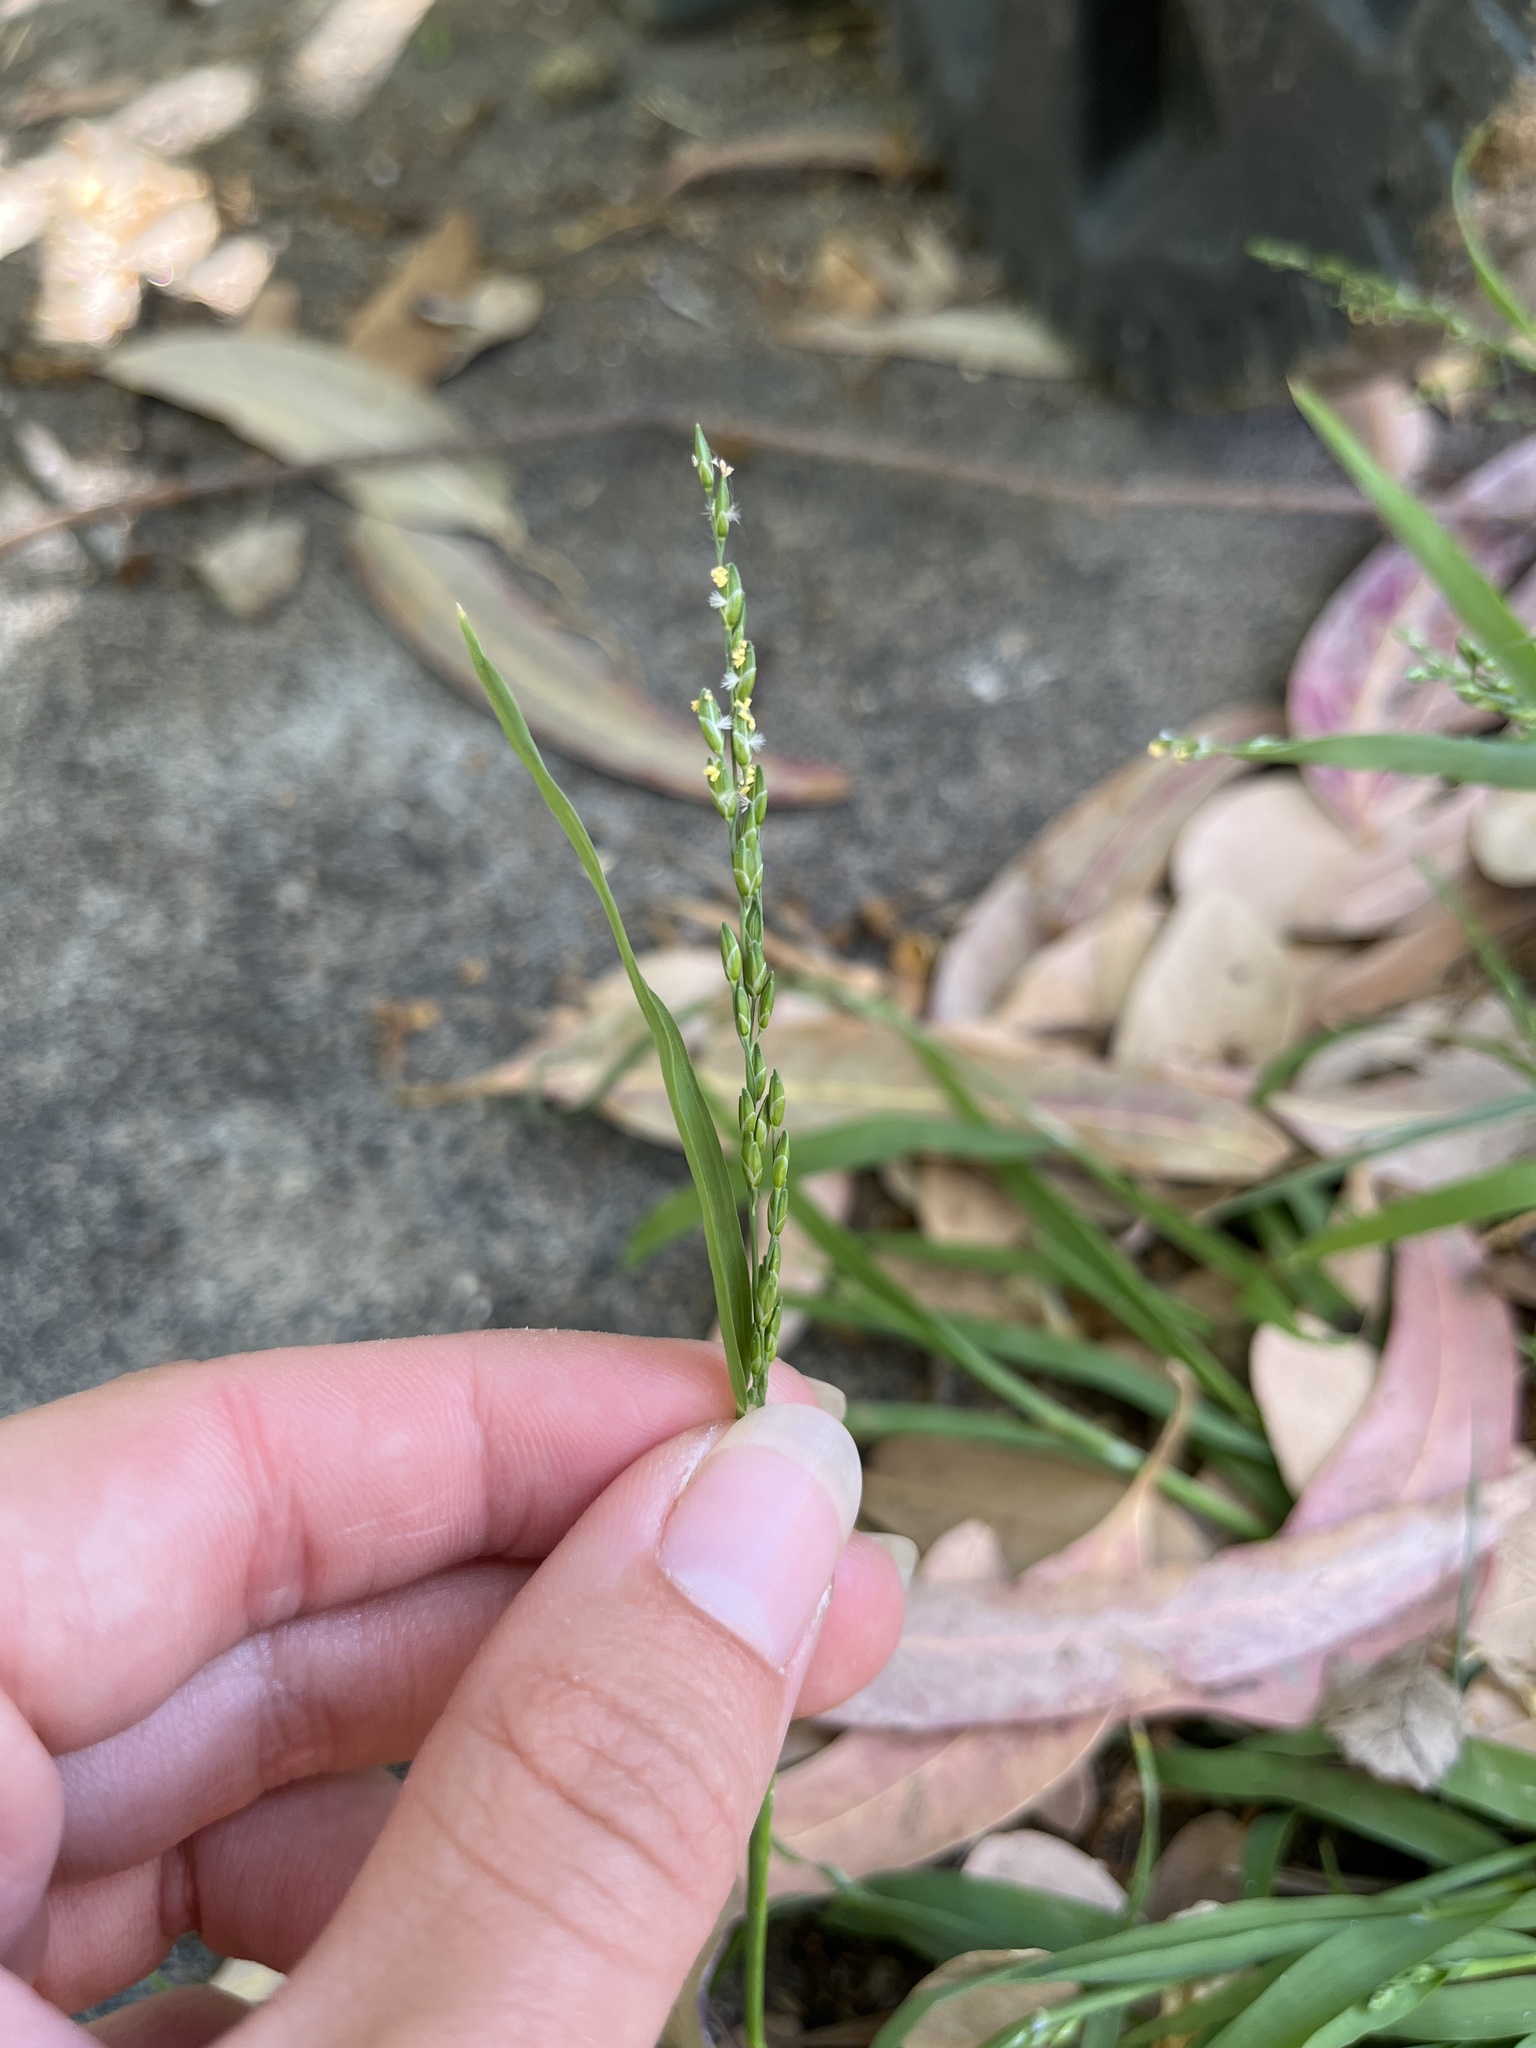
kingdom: Plantae
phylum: Tracheophyta
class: Liliopsida
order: Poales
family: Poaceae
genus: Ehrharta
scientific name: Ehrharta erecta
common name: Panic veldtgrass
